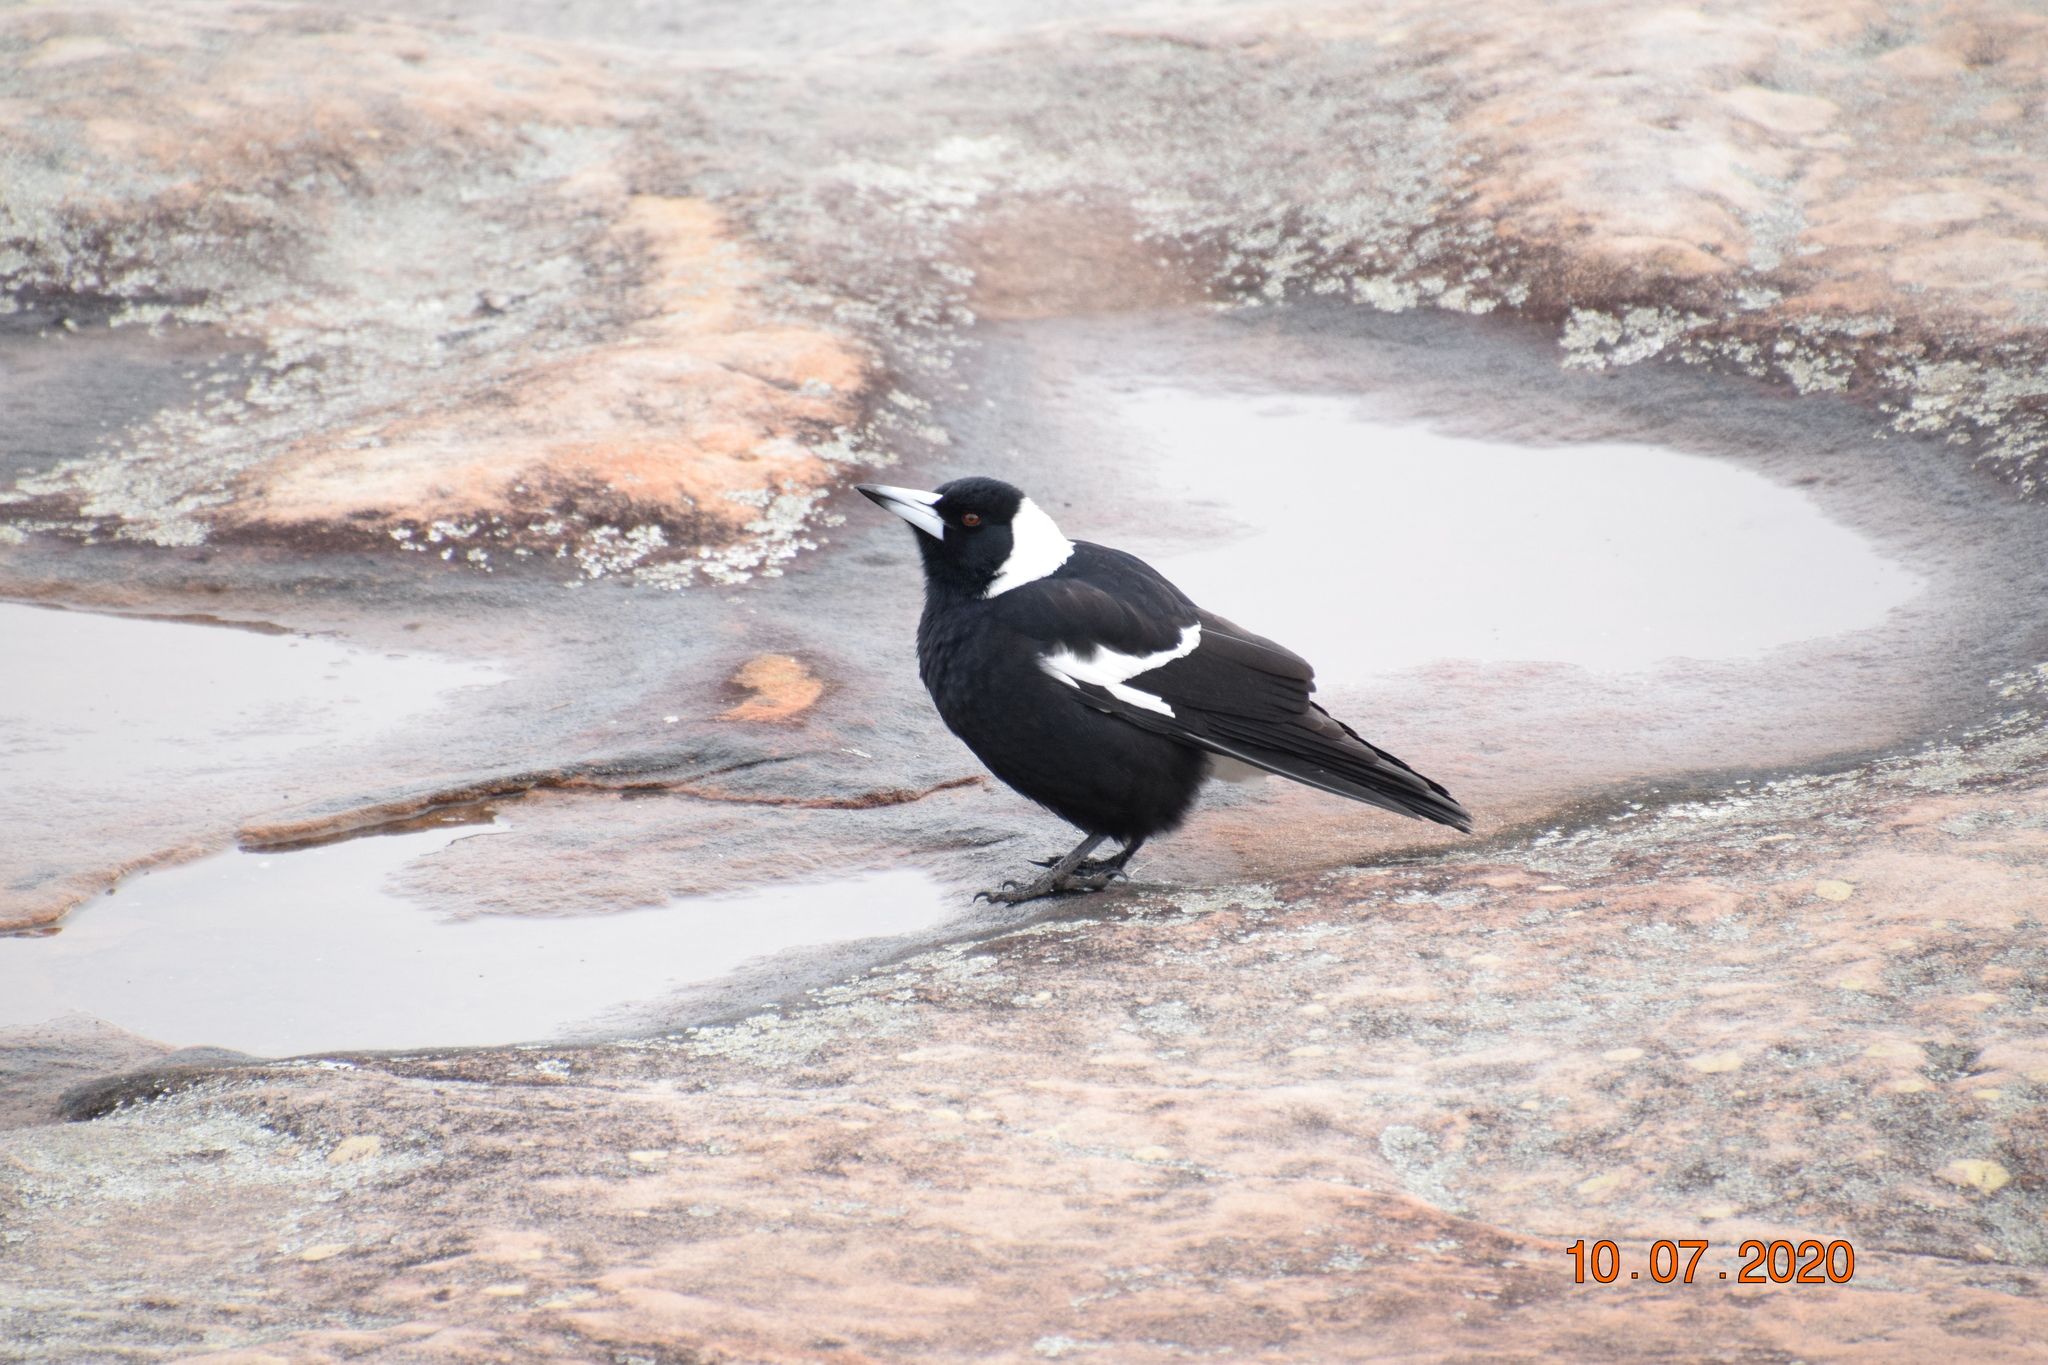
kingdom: Animalia
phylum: Chordata
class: Aves
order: Passeriformes
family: Cracticidae
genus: Gymnorhina
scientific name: Gymnorhina tibicen
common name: Australian magpie
